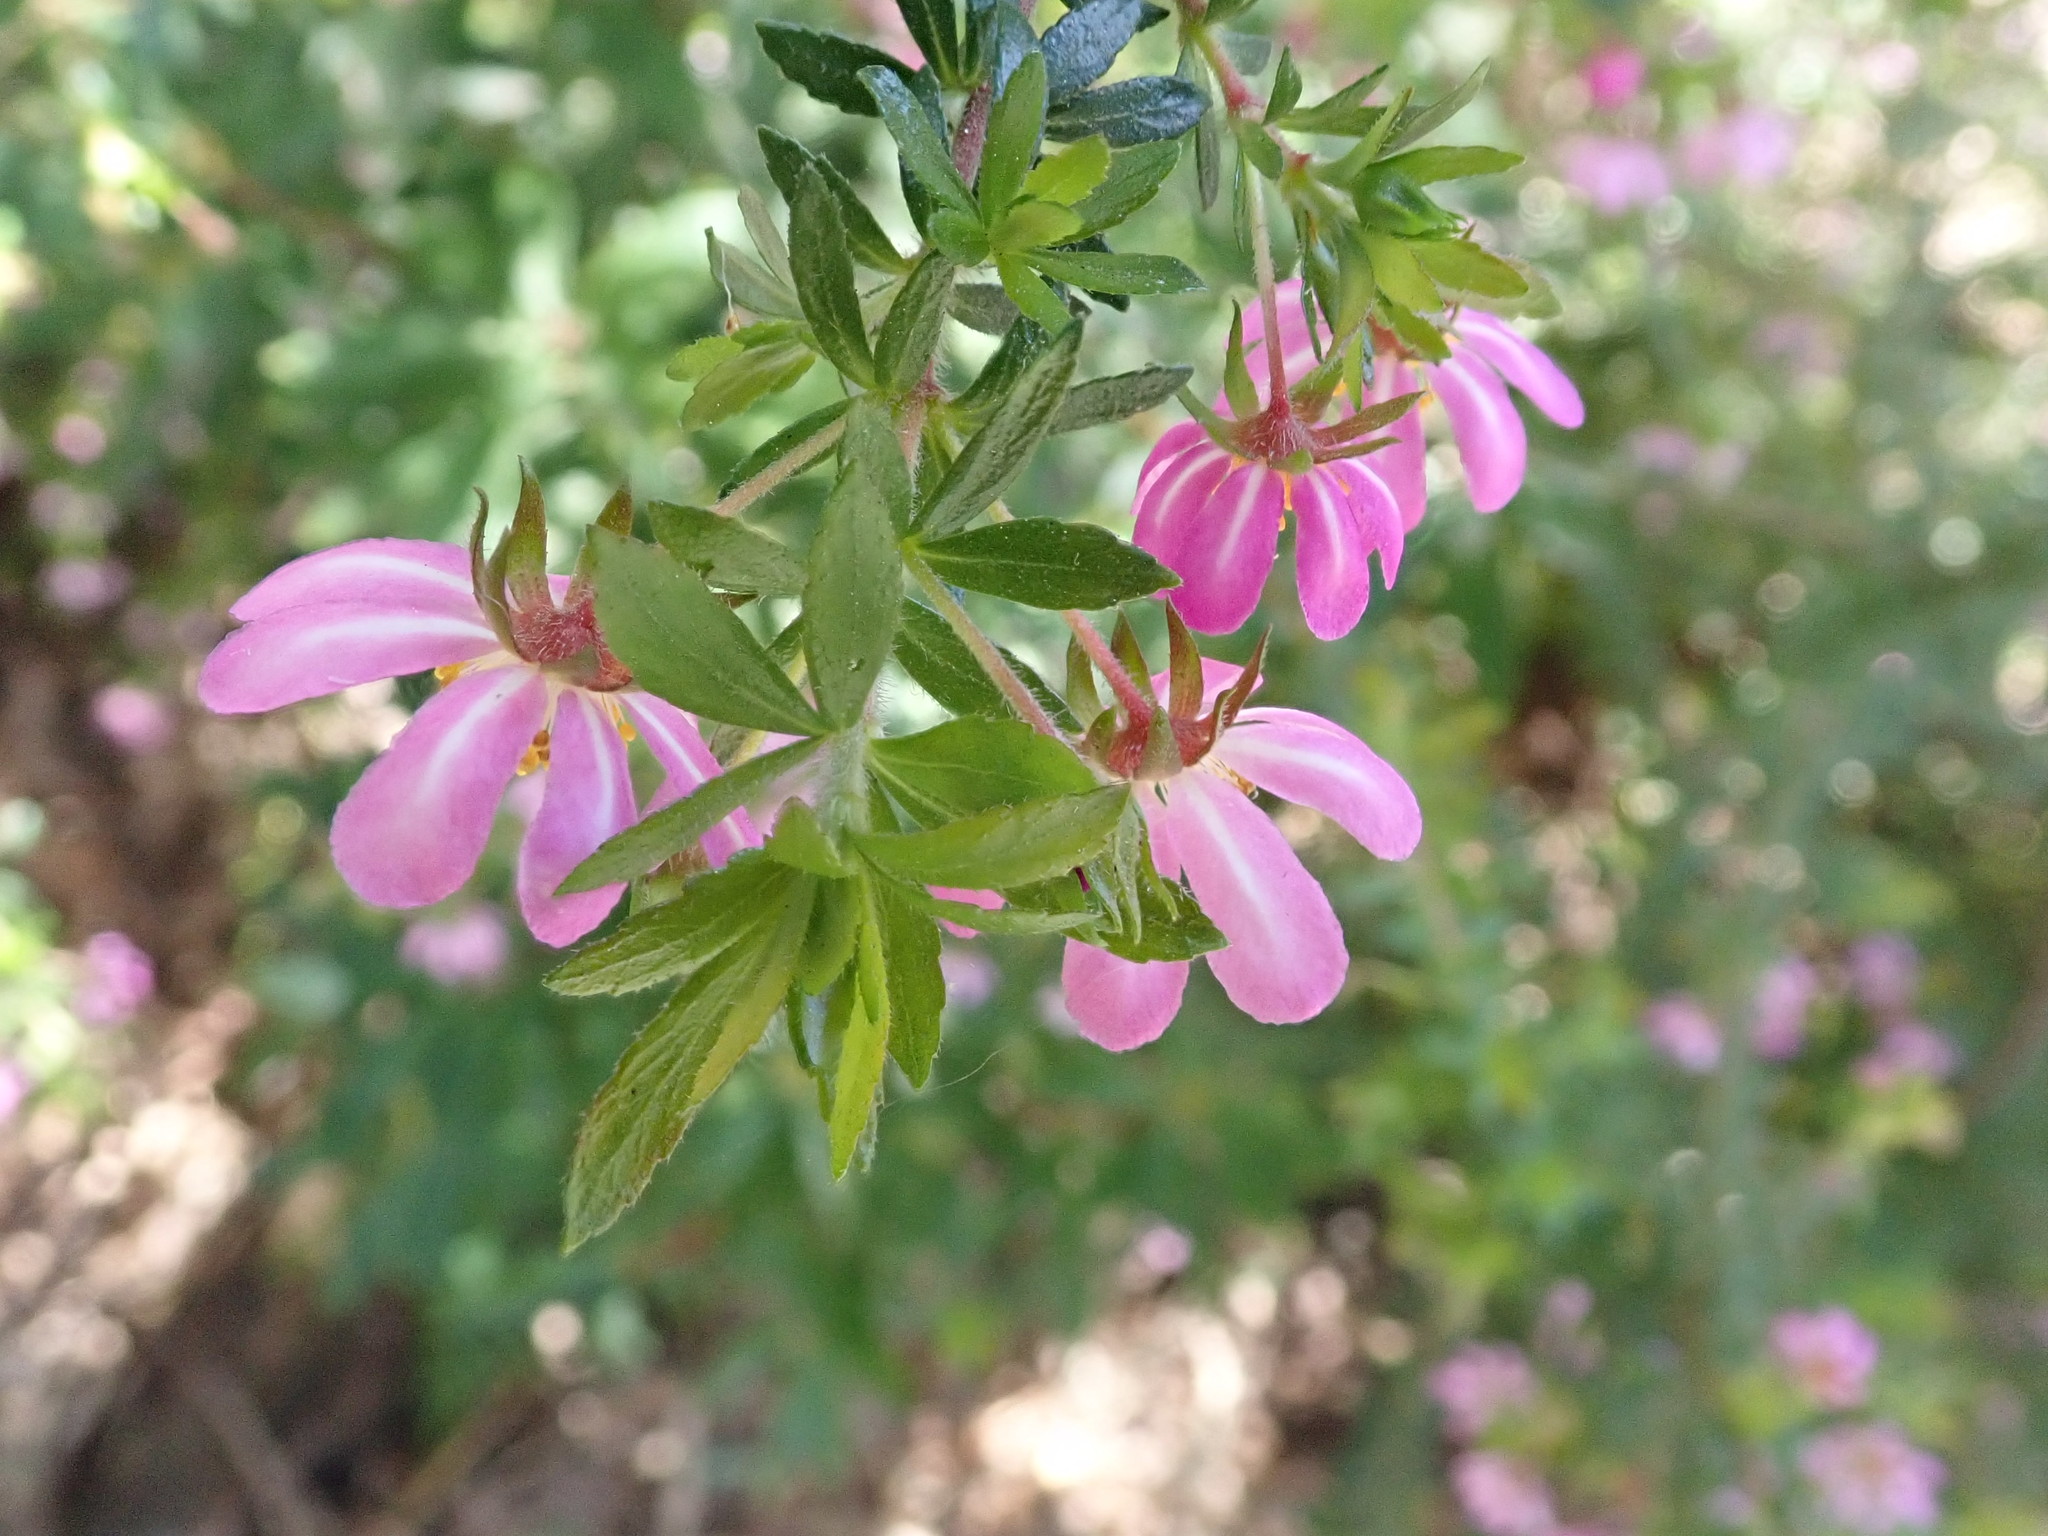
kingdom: Plantae
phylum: Tracheophyta
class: Magnoliopsida
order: Oxalidales
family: Cunoniaceae
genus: Bauera
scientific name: Bauera rubioides
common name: River-rose
